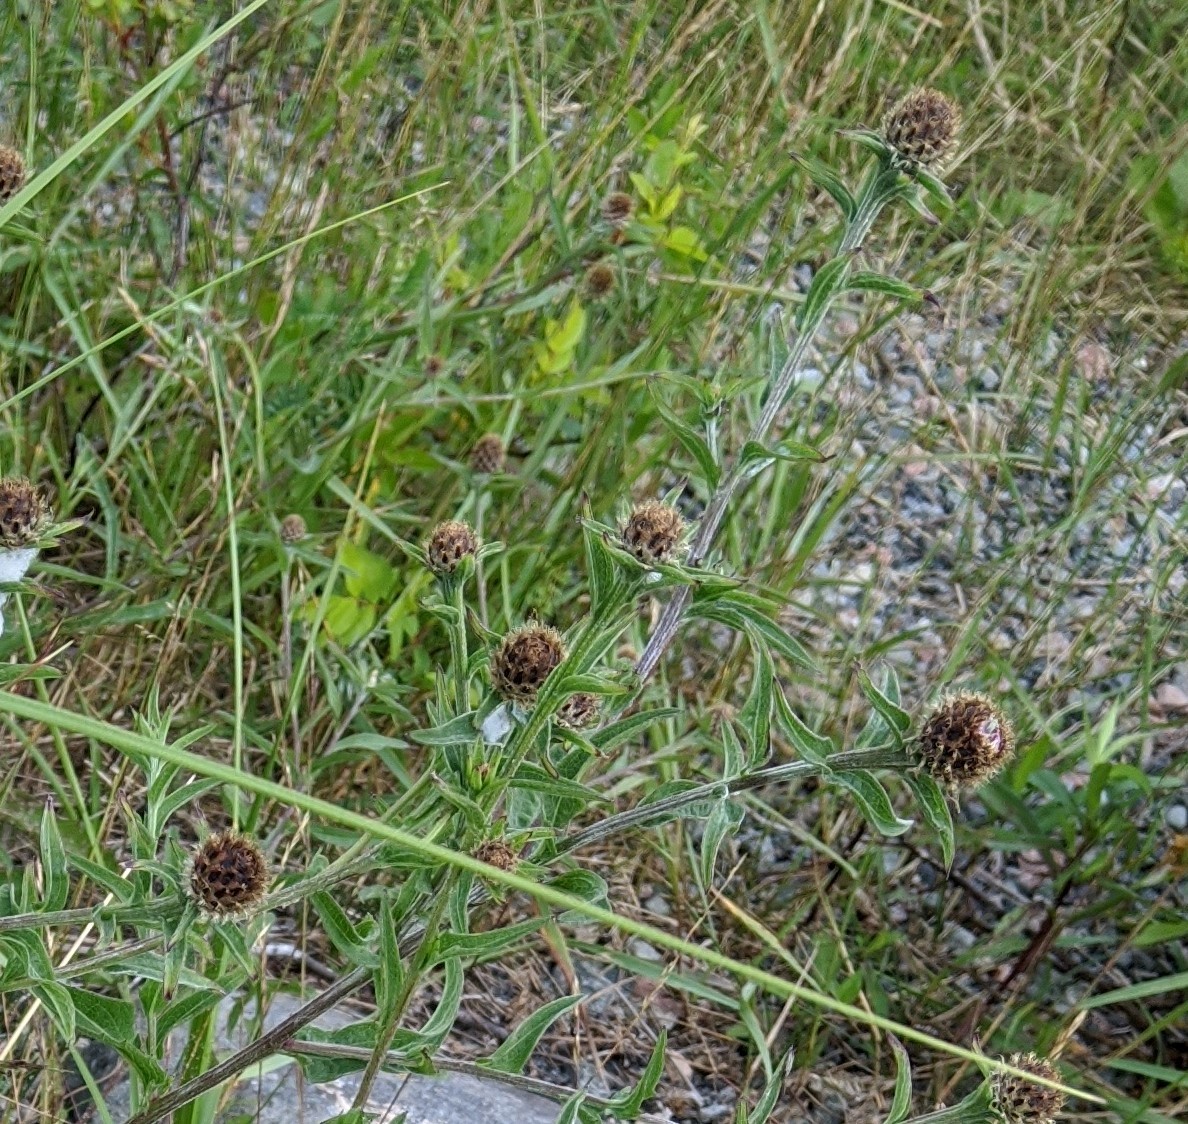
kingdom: Plantae
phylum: Tracheophyta
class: Magnoliopsida
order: Asterales
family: Asteraceae
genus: Centaurea
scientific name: Centaurea nigra
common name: Lesser knapweed
